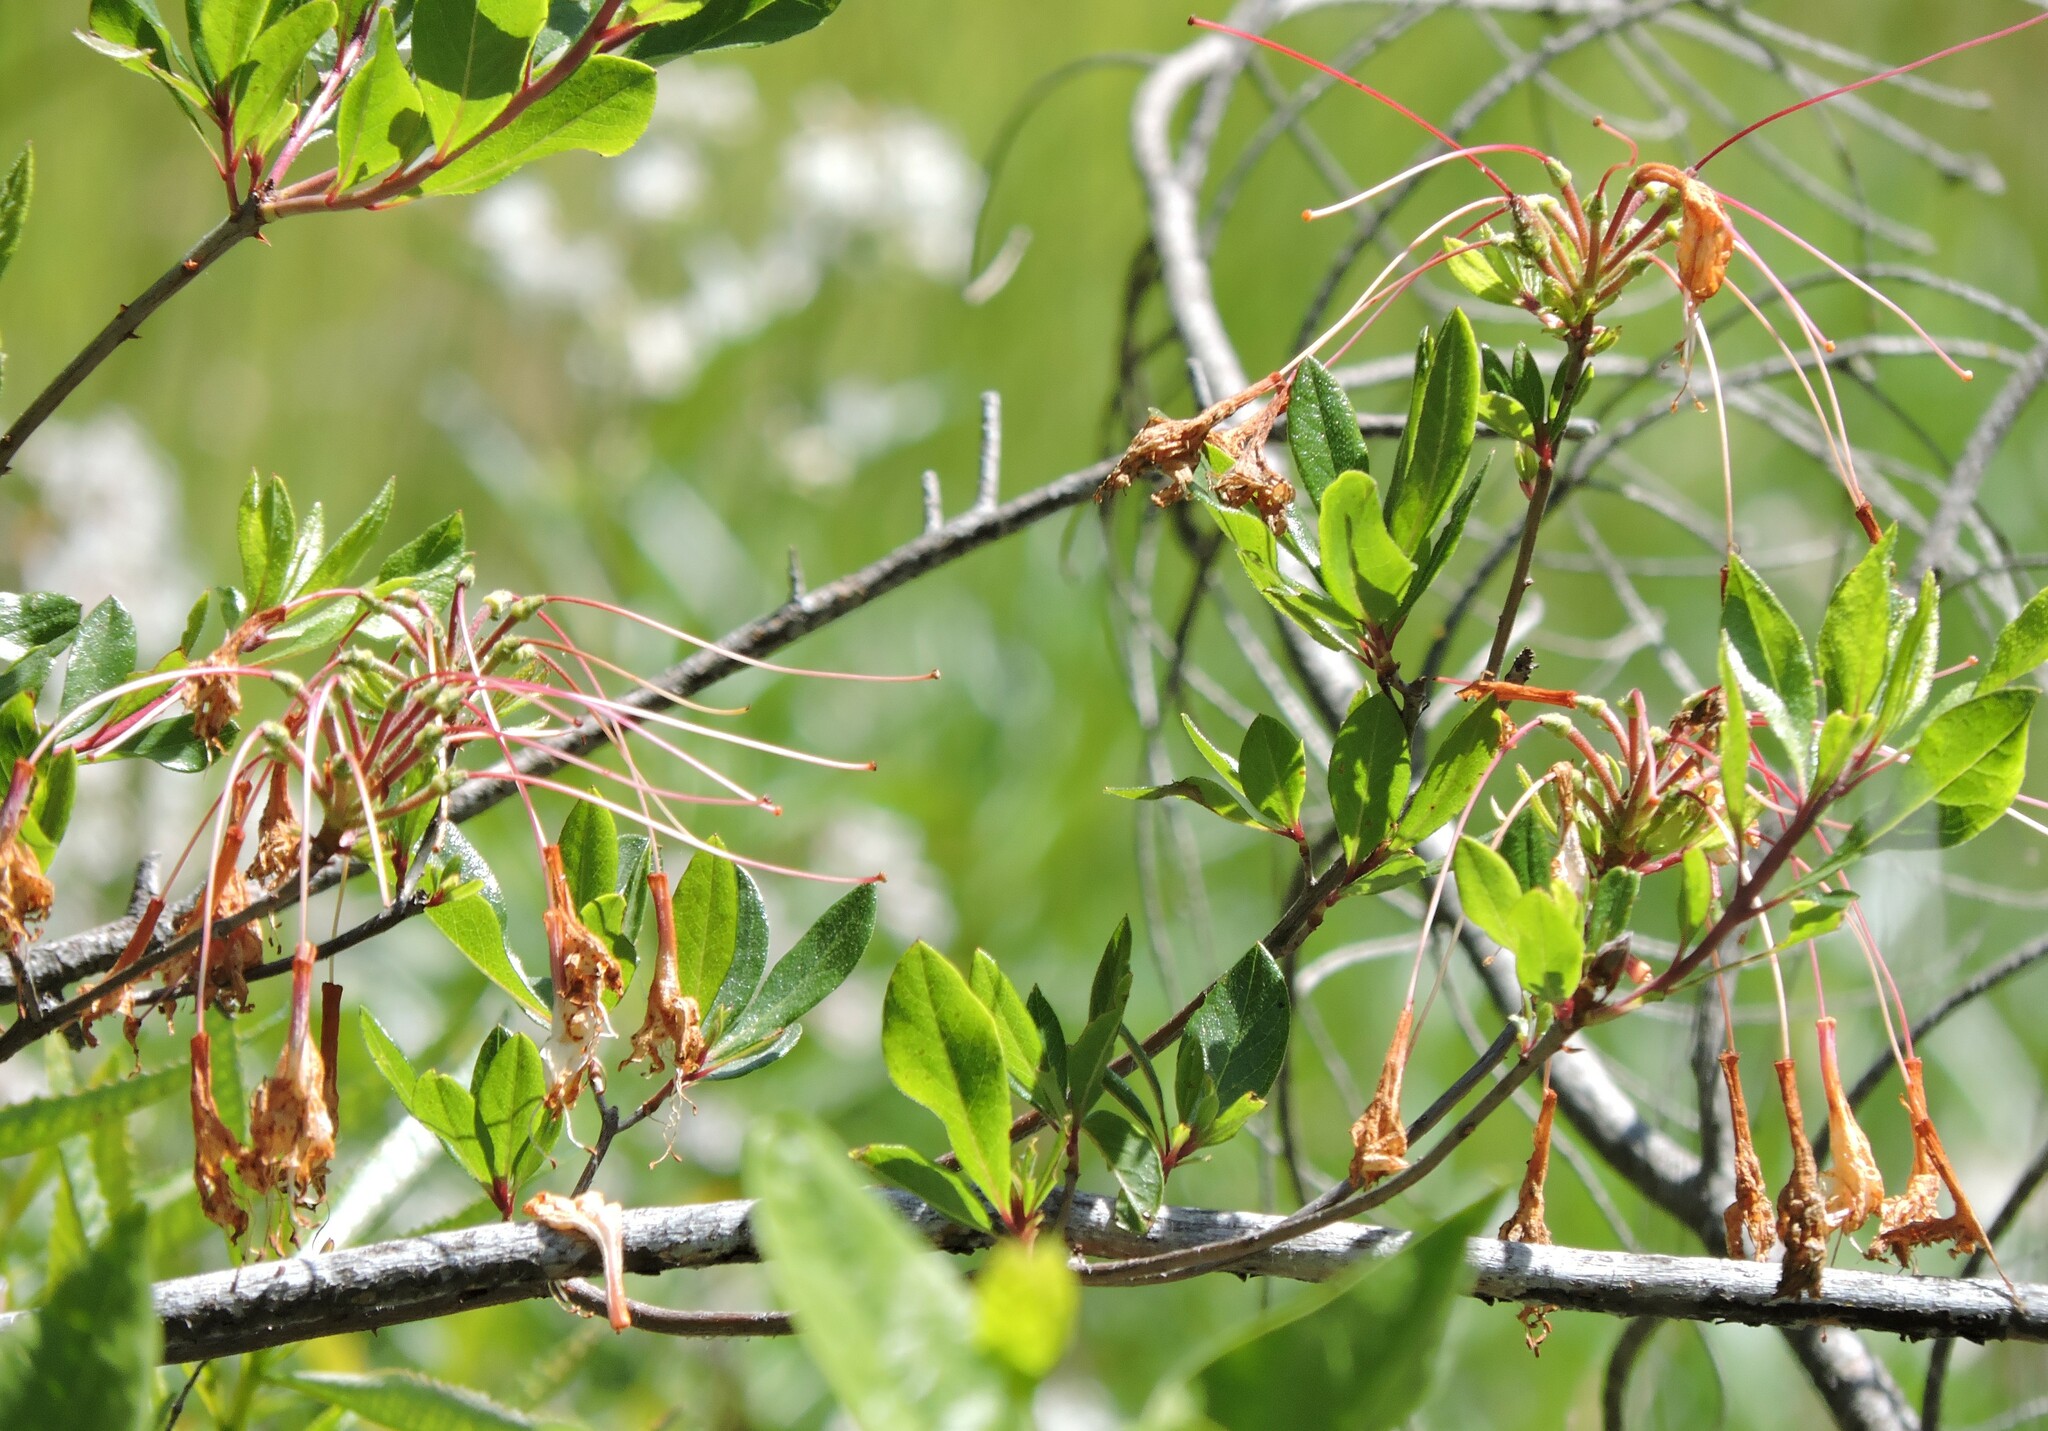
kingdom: Plantae
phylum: Tracheophyta
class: Magnoliopsida
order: Ericales
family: Ericaceae
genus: Rhododendron
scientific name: Rhododendron occidentale
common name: Western azalea
